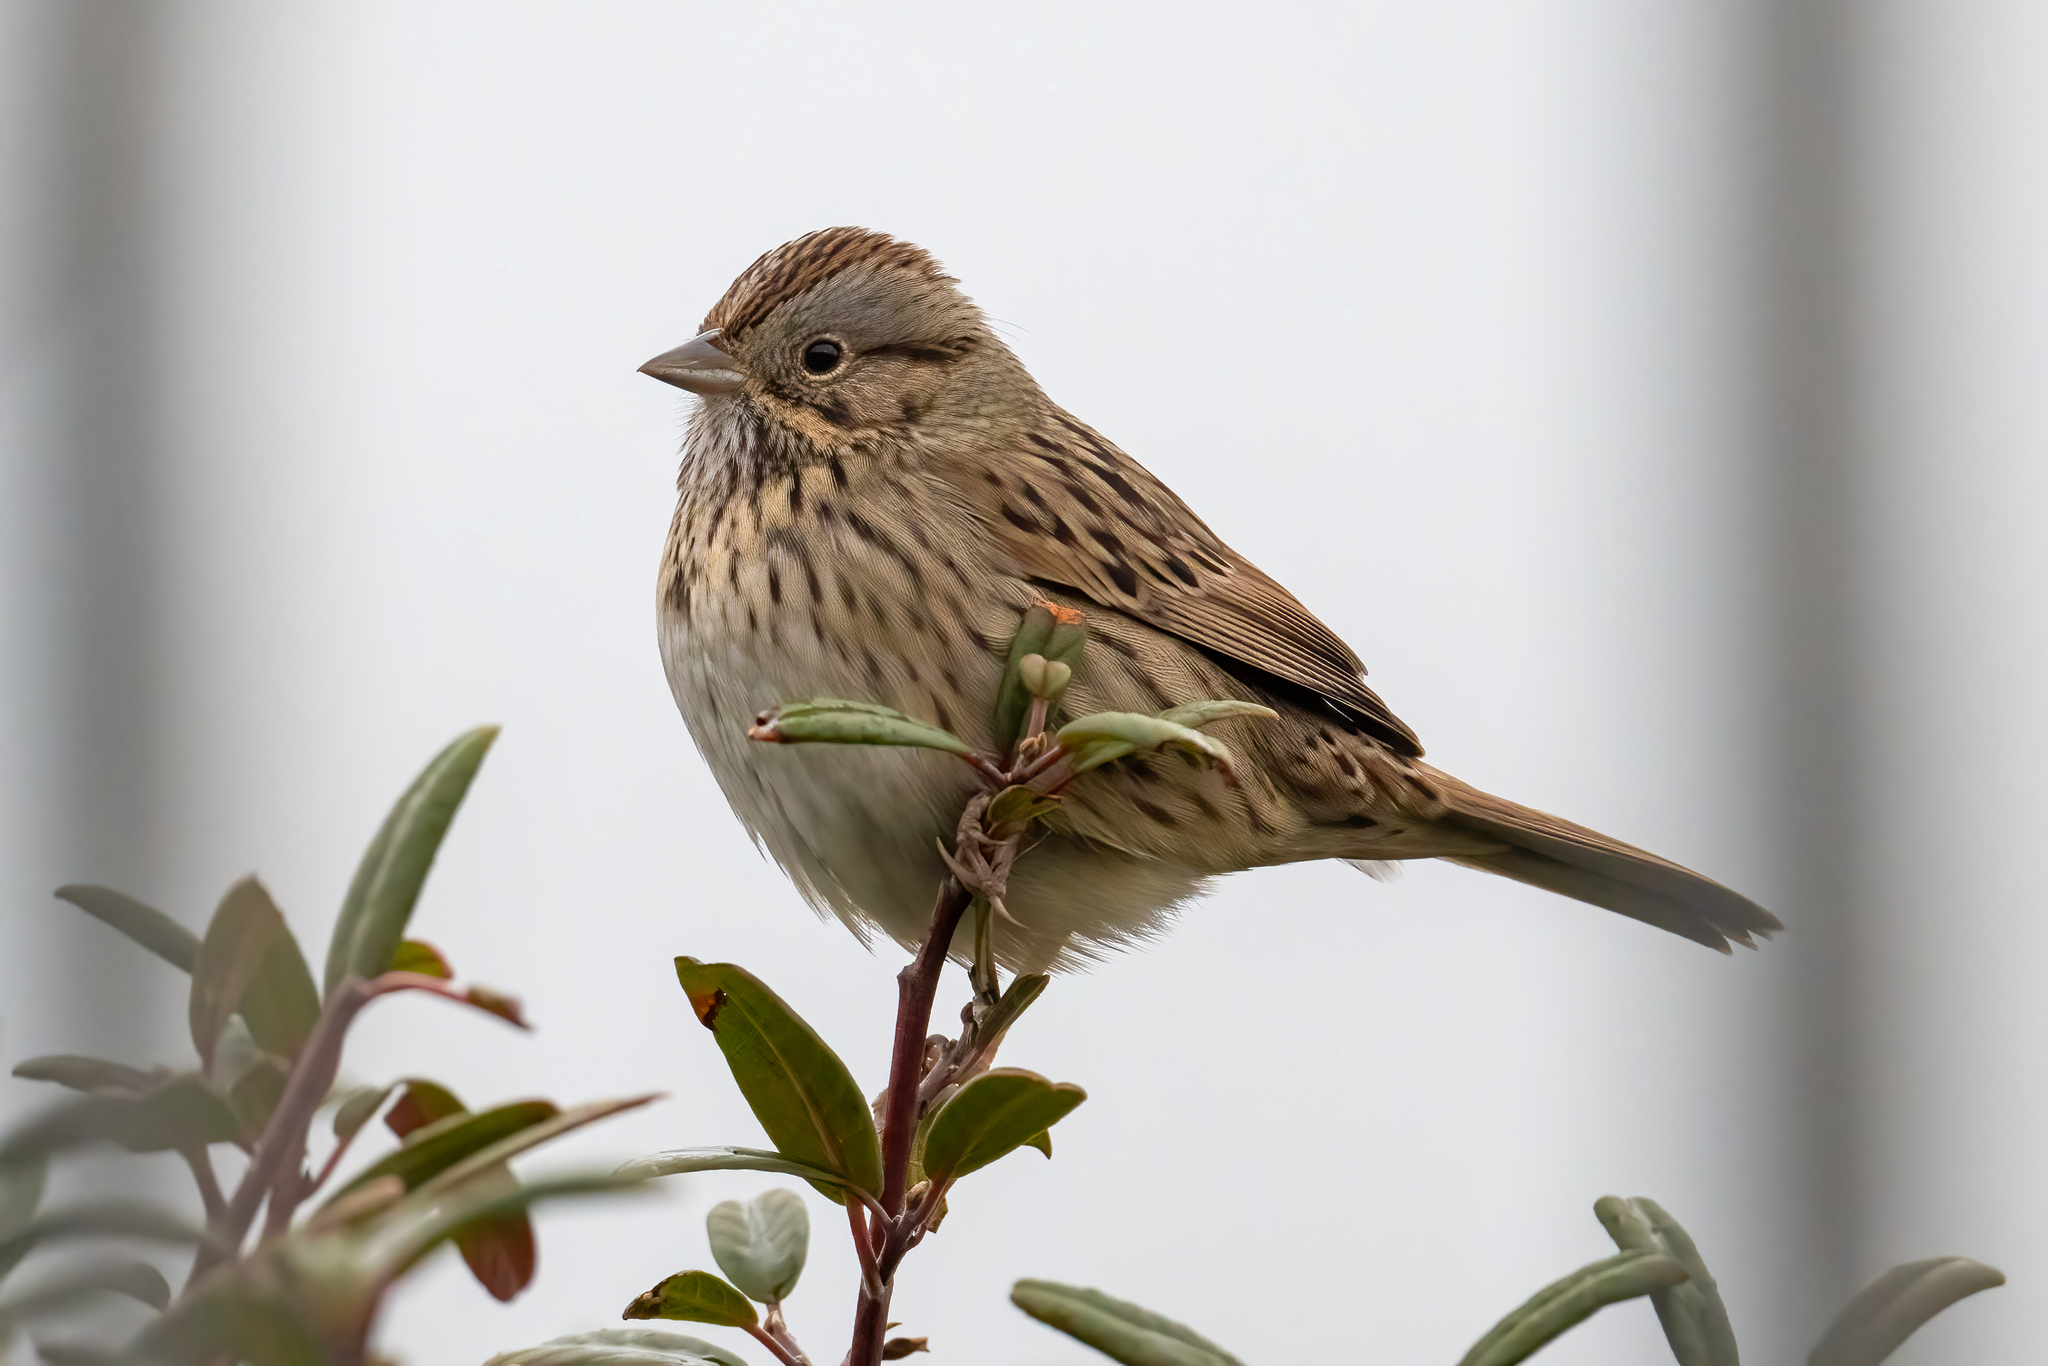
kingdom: Animalia
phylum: Chordata
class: Aves
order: Passeriformes
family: Passerellidae
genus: Melospiza
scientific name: Melospiza lincolnii
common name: Lincoln's sparrow
